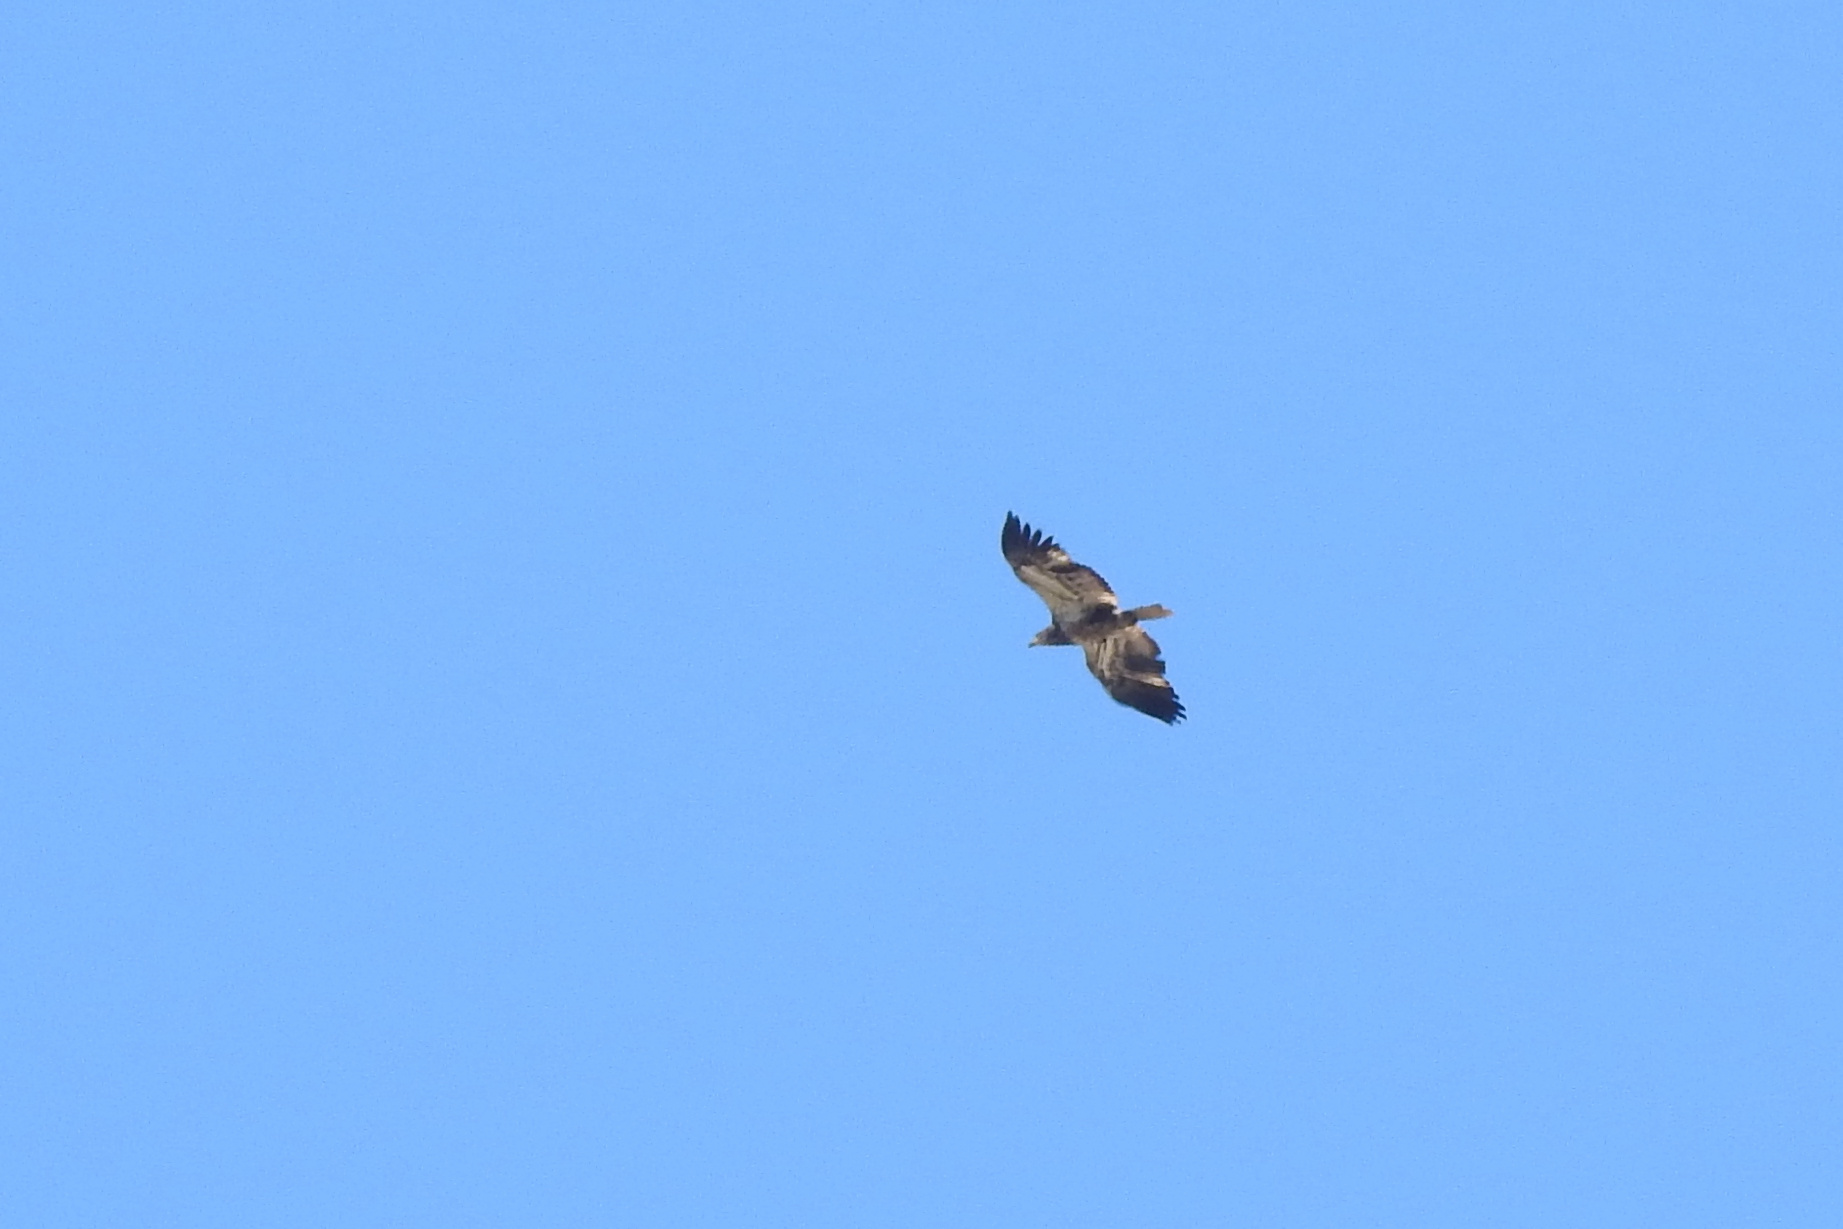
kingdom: Animalia
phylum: Chordata
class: Aves
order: Accipitriformes
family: Accipitridae
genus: Haliaeetus
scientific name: Haliaeetus leucocephalus
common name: Bald eagle
